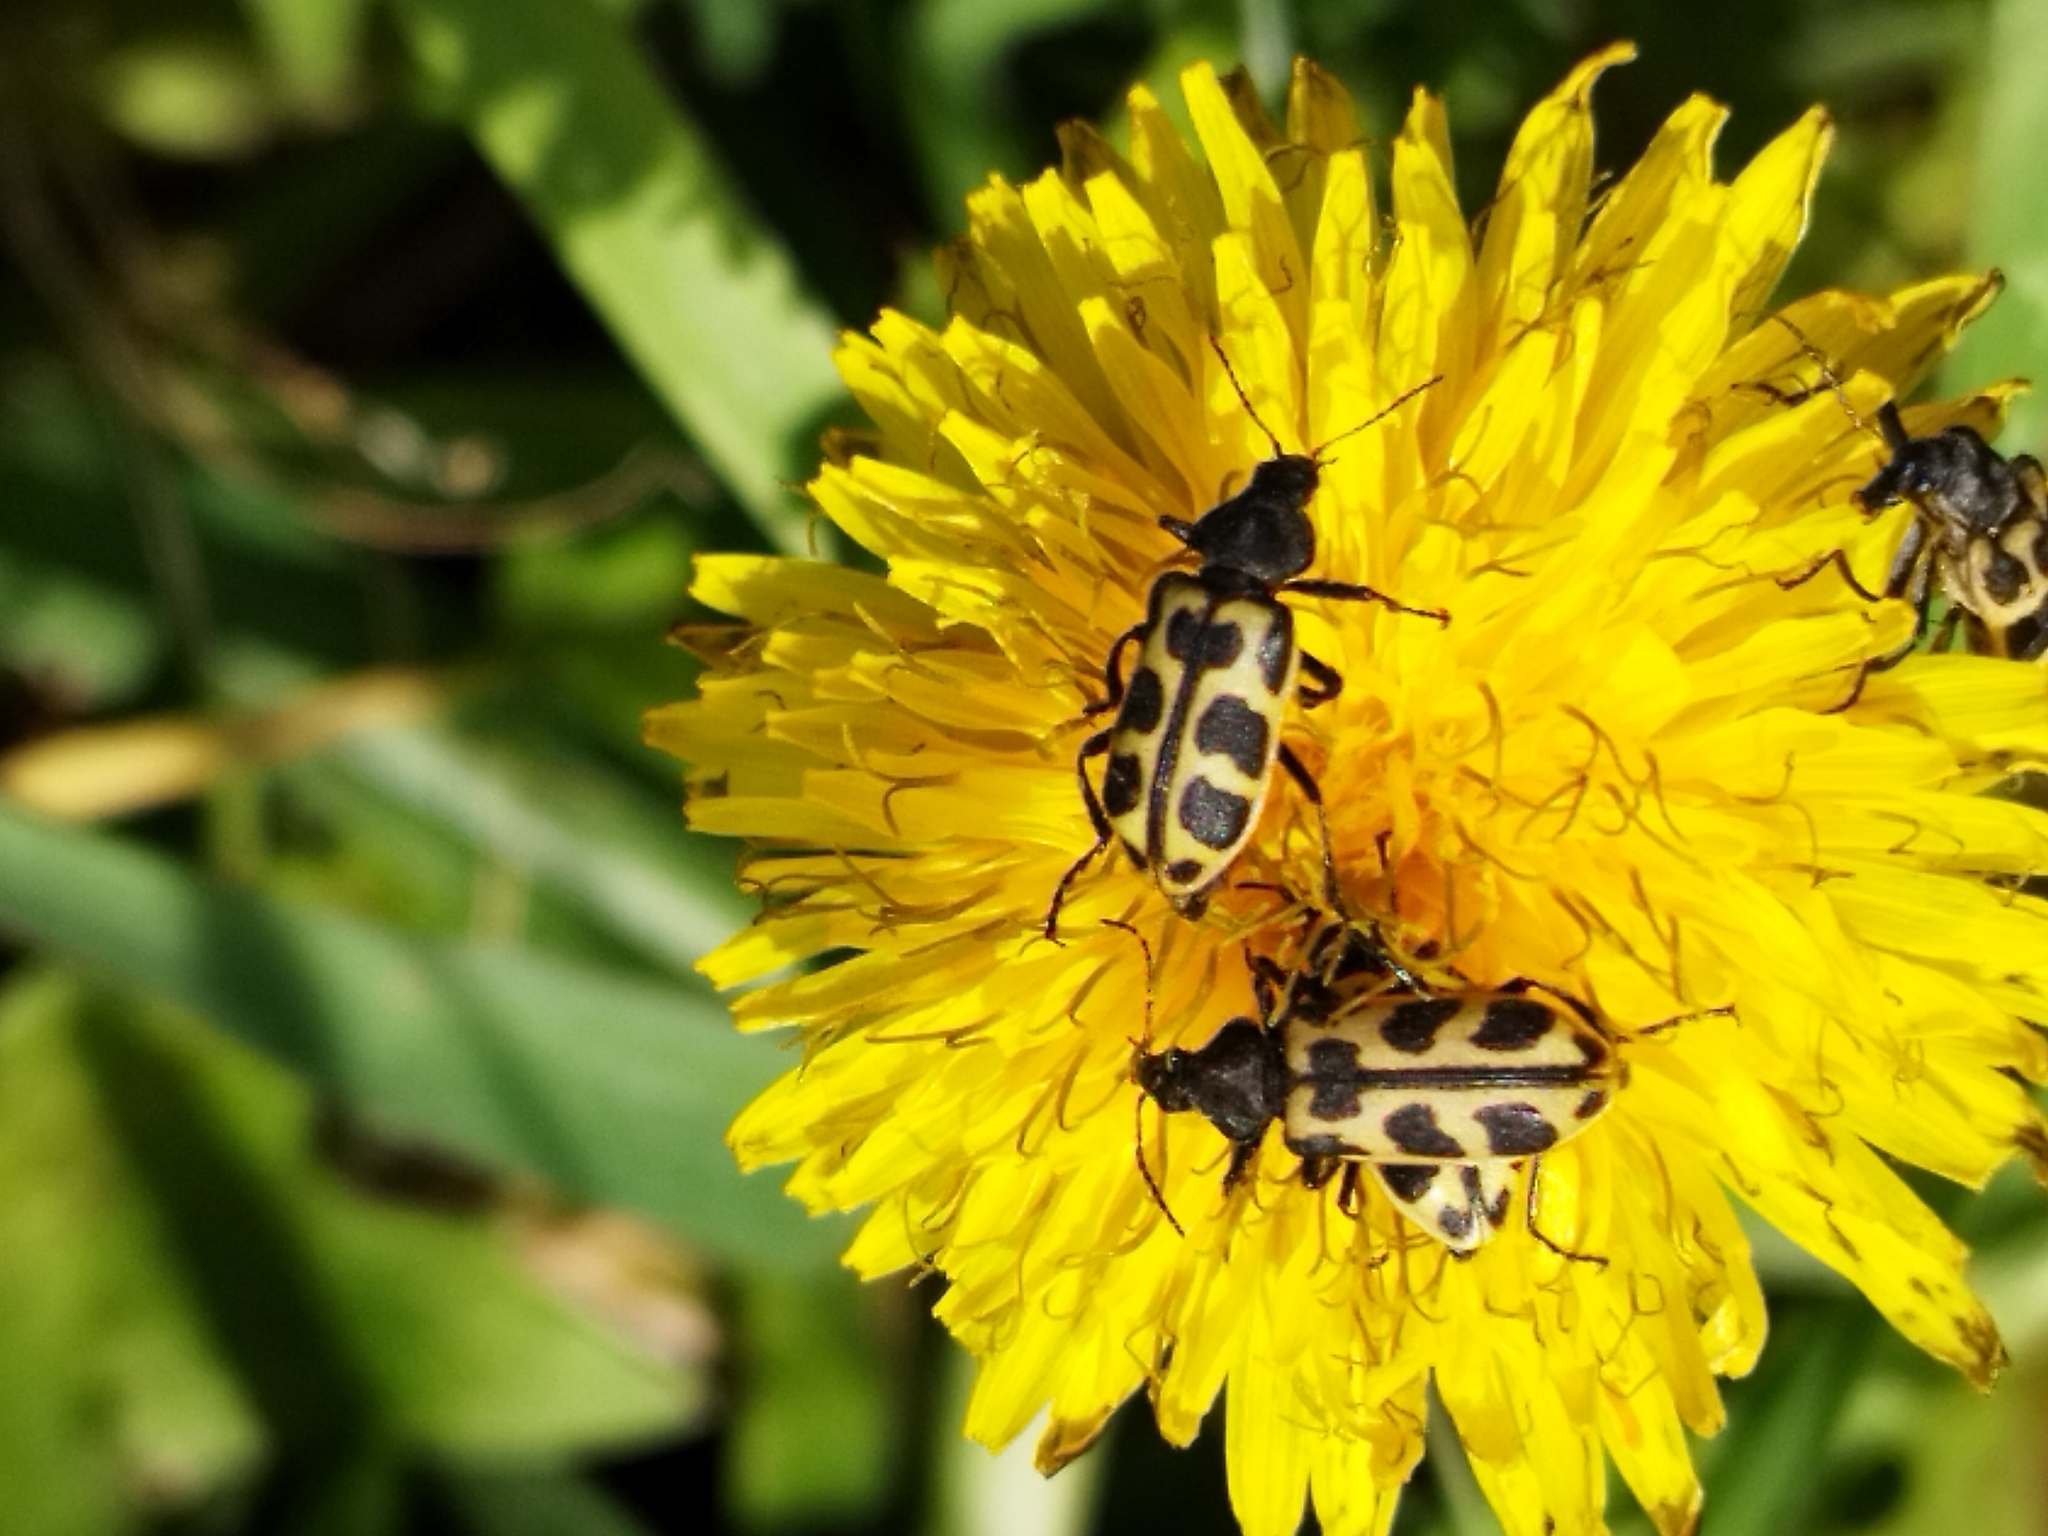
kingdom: Animalia
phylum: Arthropoda
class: Insecta
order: Coleoptera
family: Melyridae
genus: Astylus
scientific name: Astylus atromaculatus
